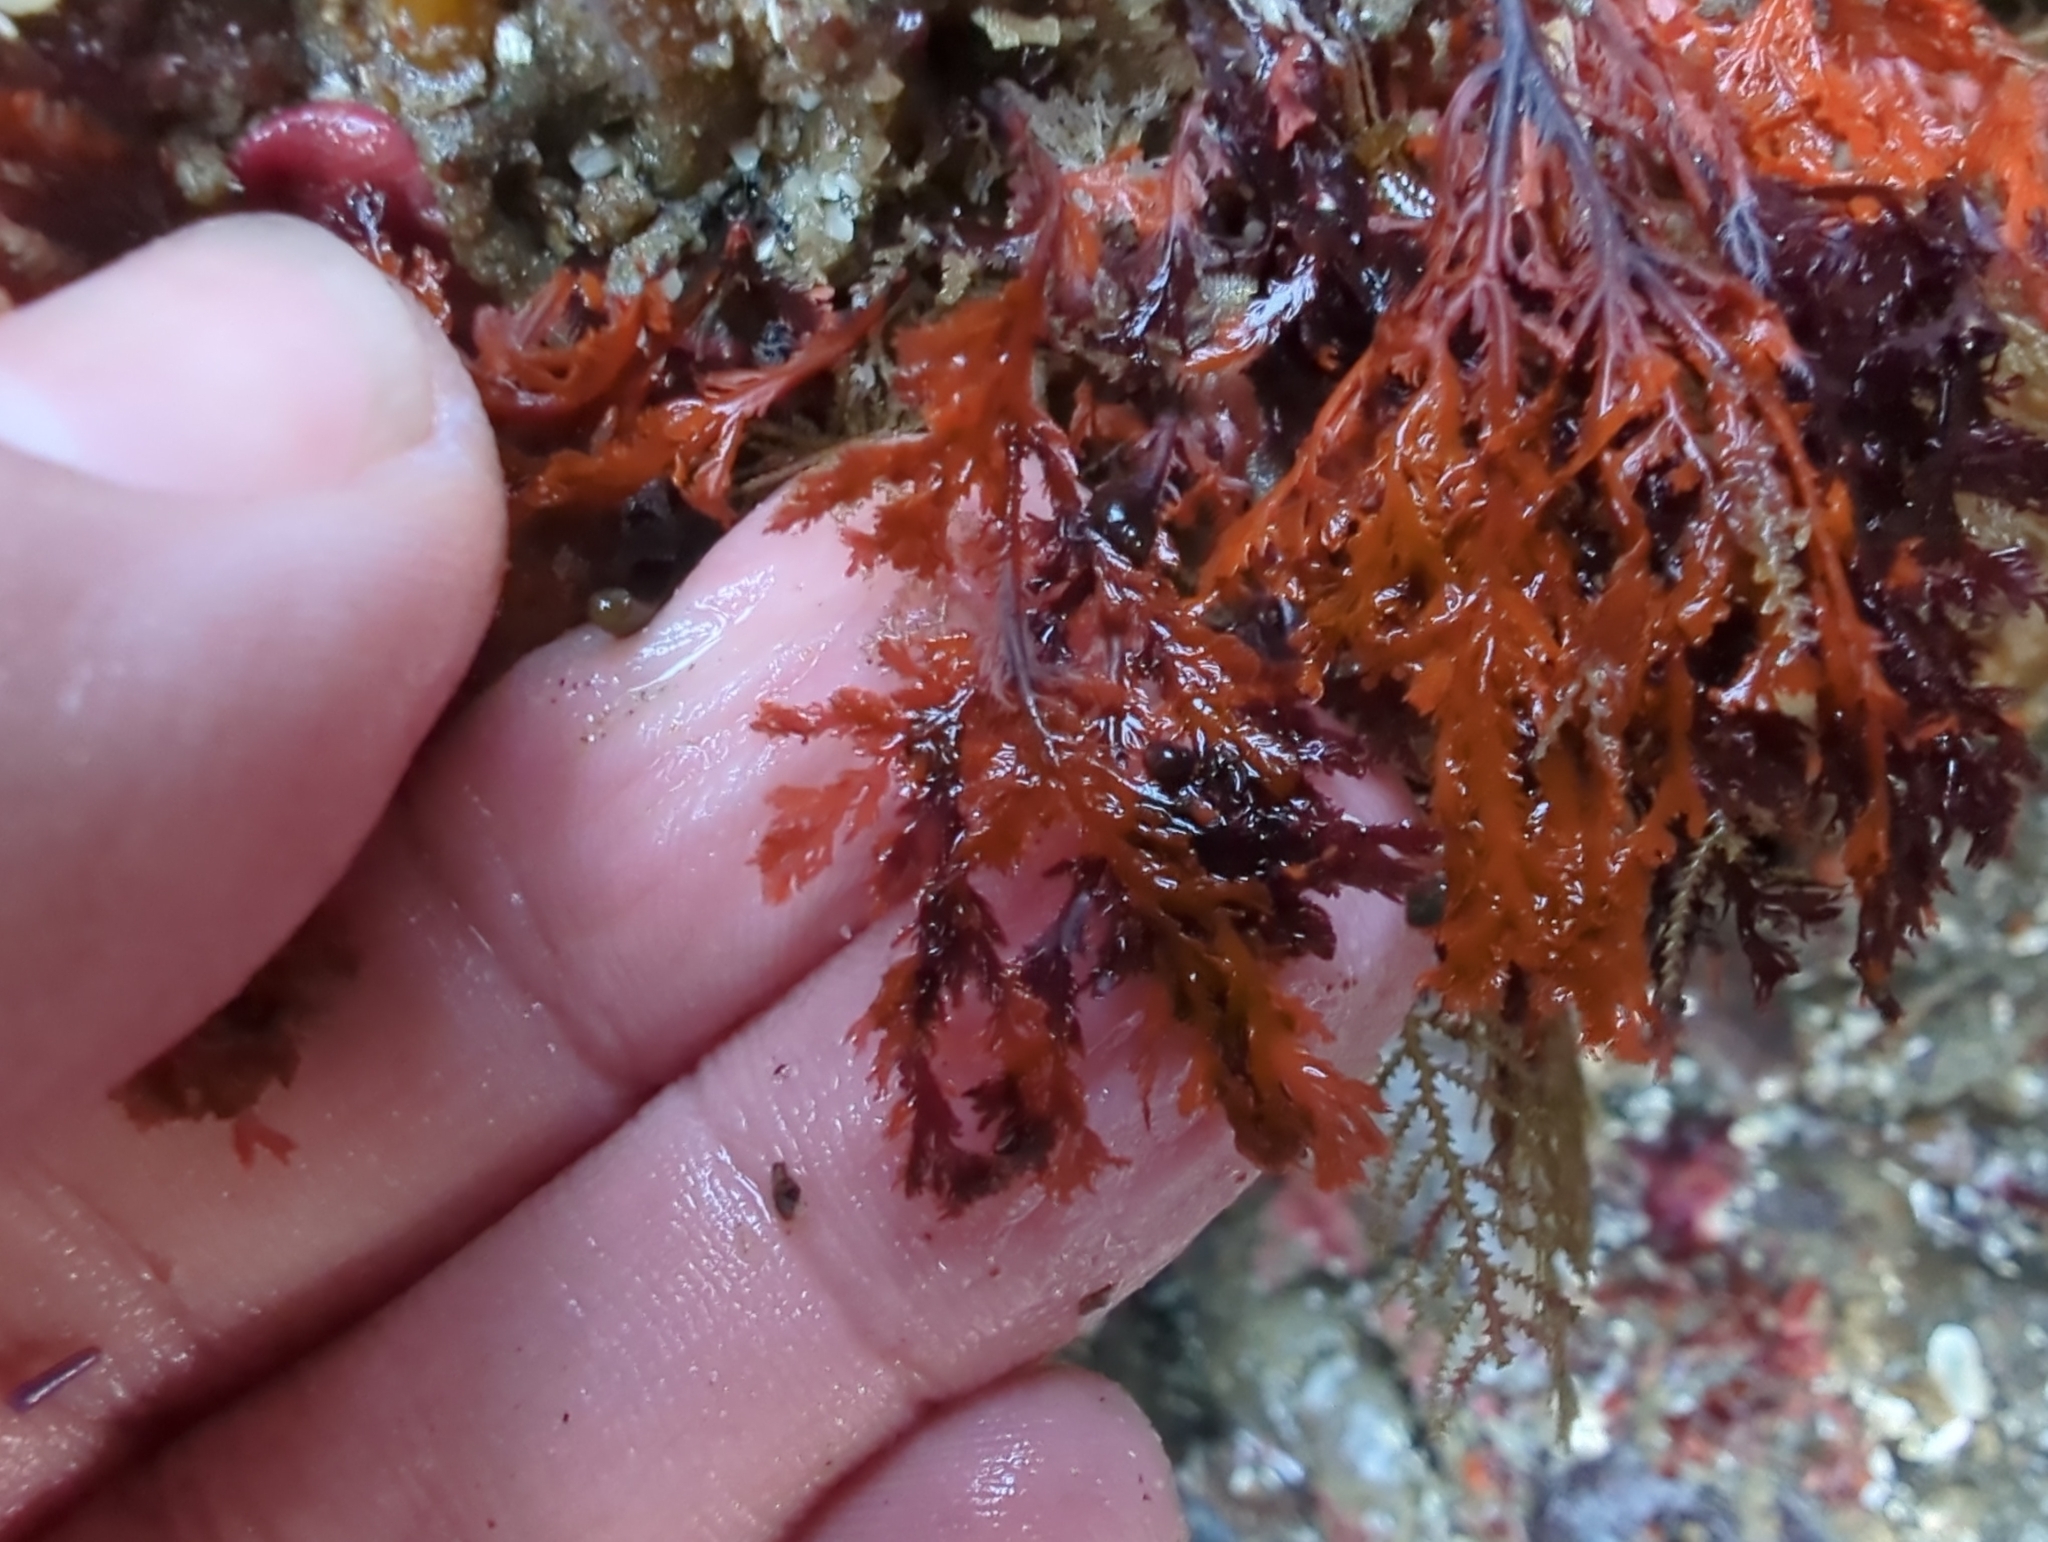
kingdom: Plantae
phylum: Rhodophyta
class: Florideophyceae
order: Plocamiales
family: Plocamiaceae
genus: Plocamium
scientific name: Plocamium cartilagineum
